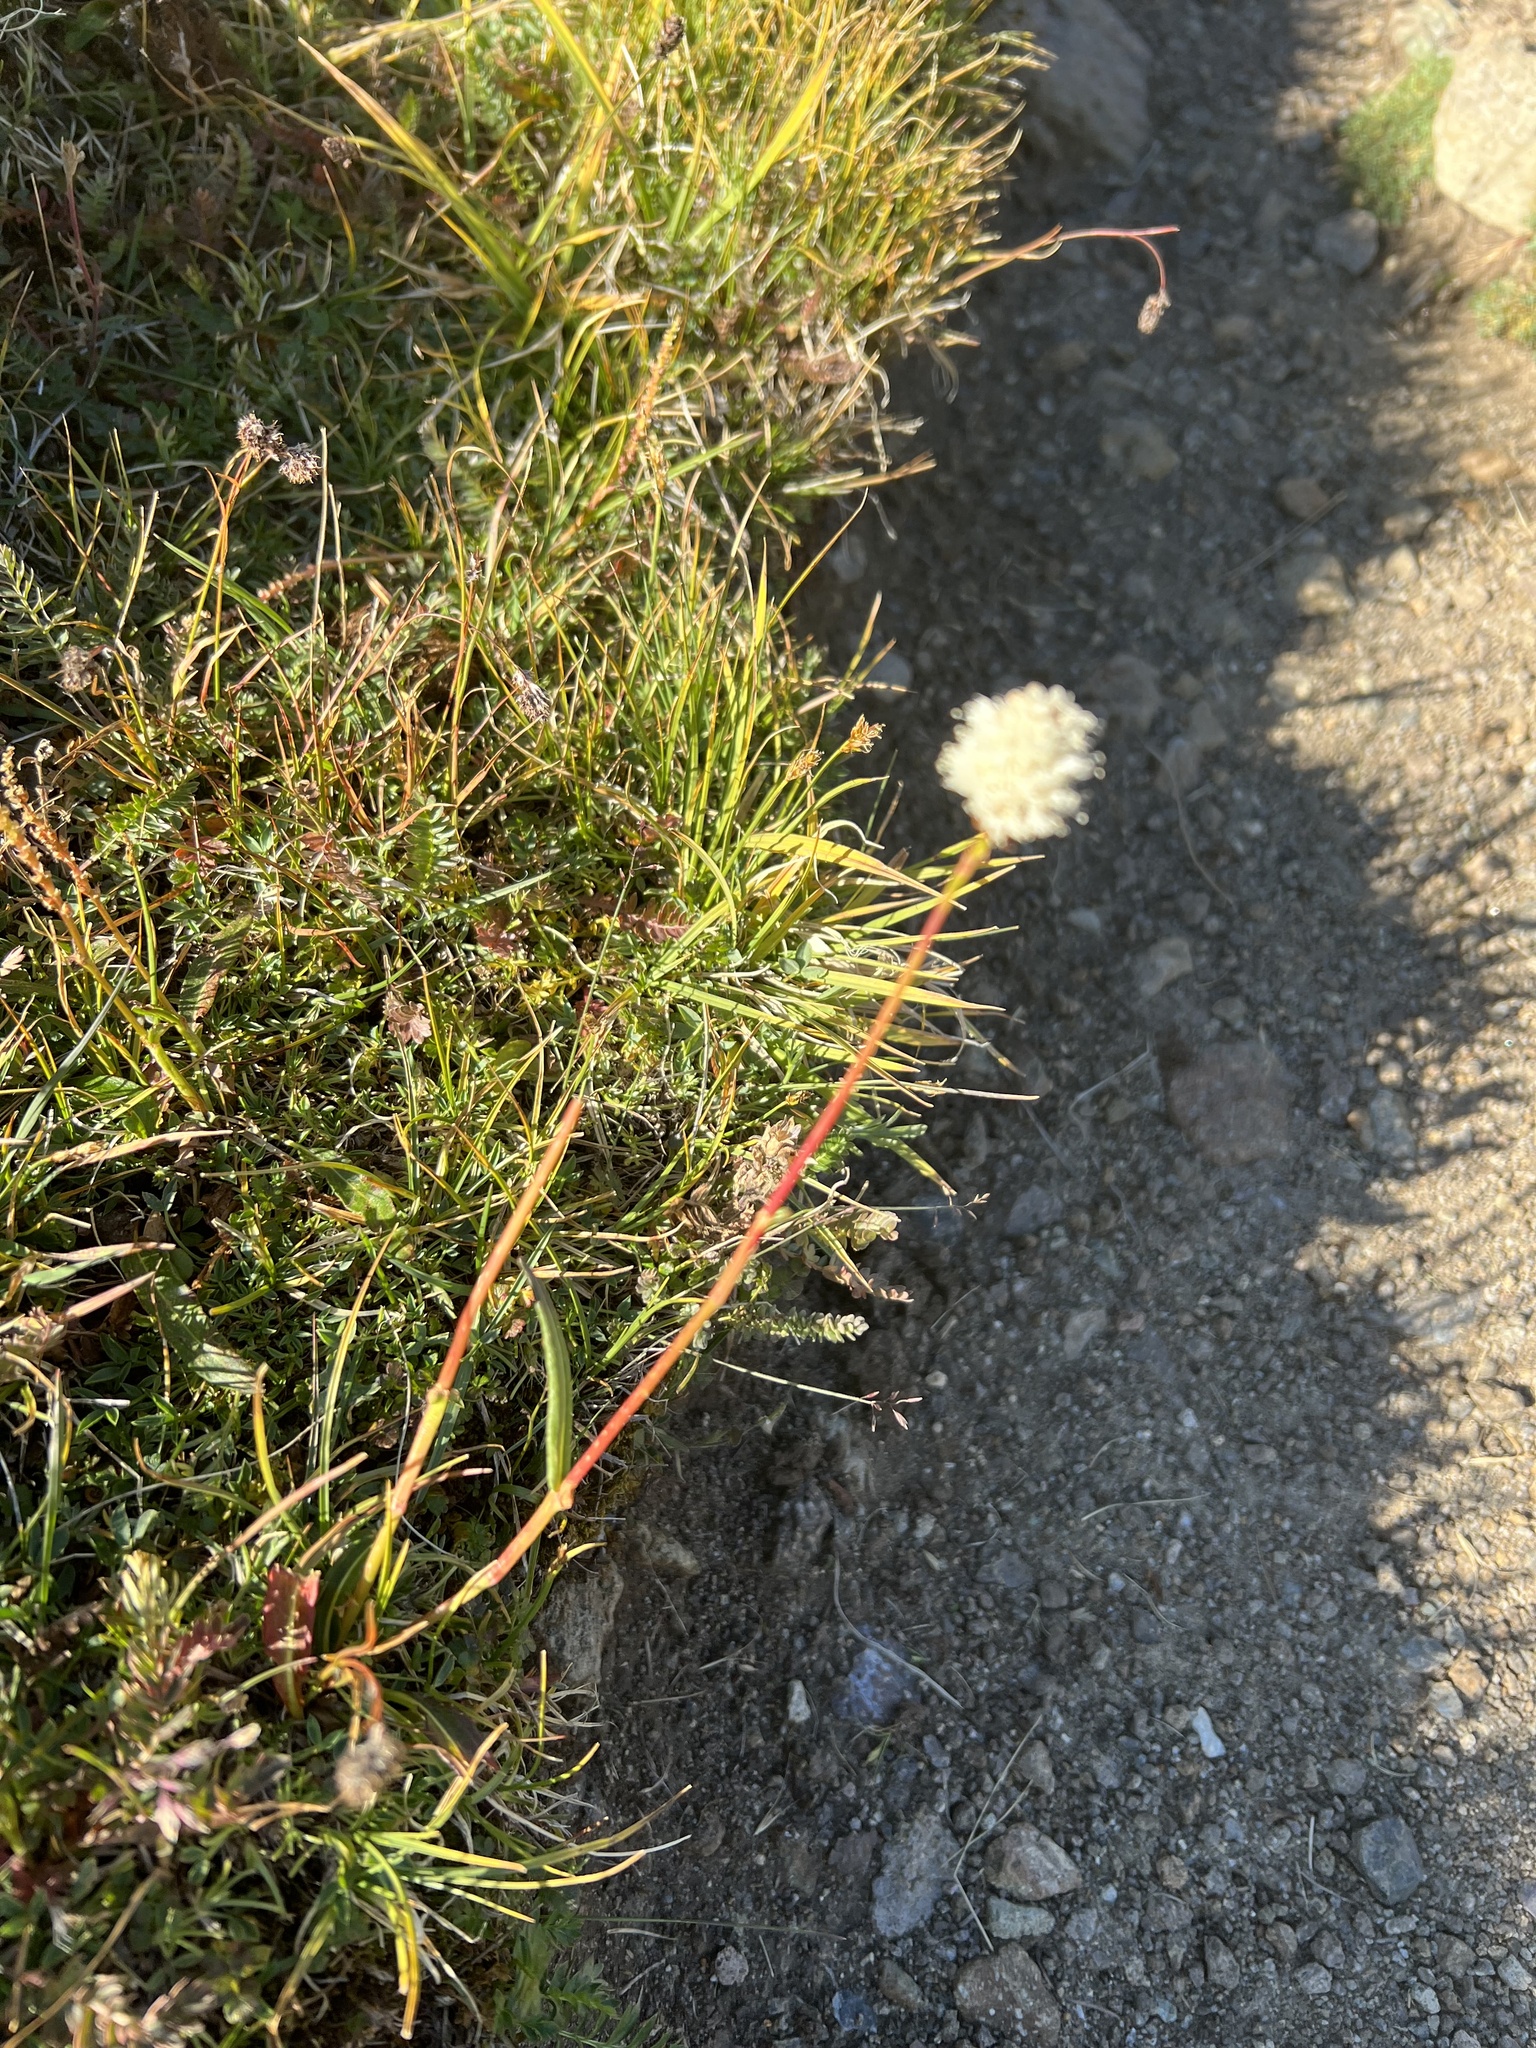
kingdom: Plantae
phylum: Tracheophyta
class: Magnoliopsida
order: Caryophyllales
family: Polygonaceae
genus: Bistorta
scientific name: Bistorta bistortoides
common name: American bistort
